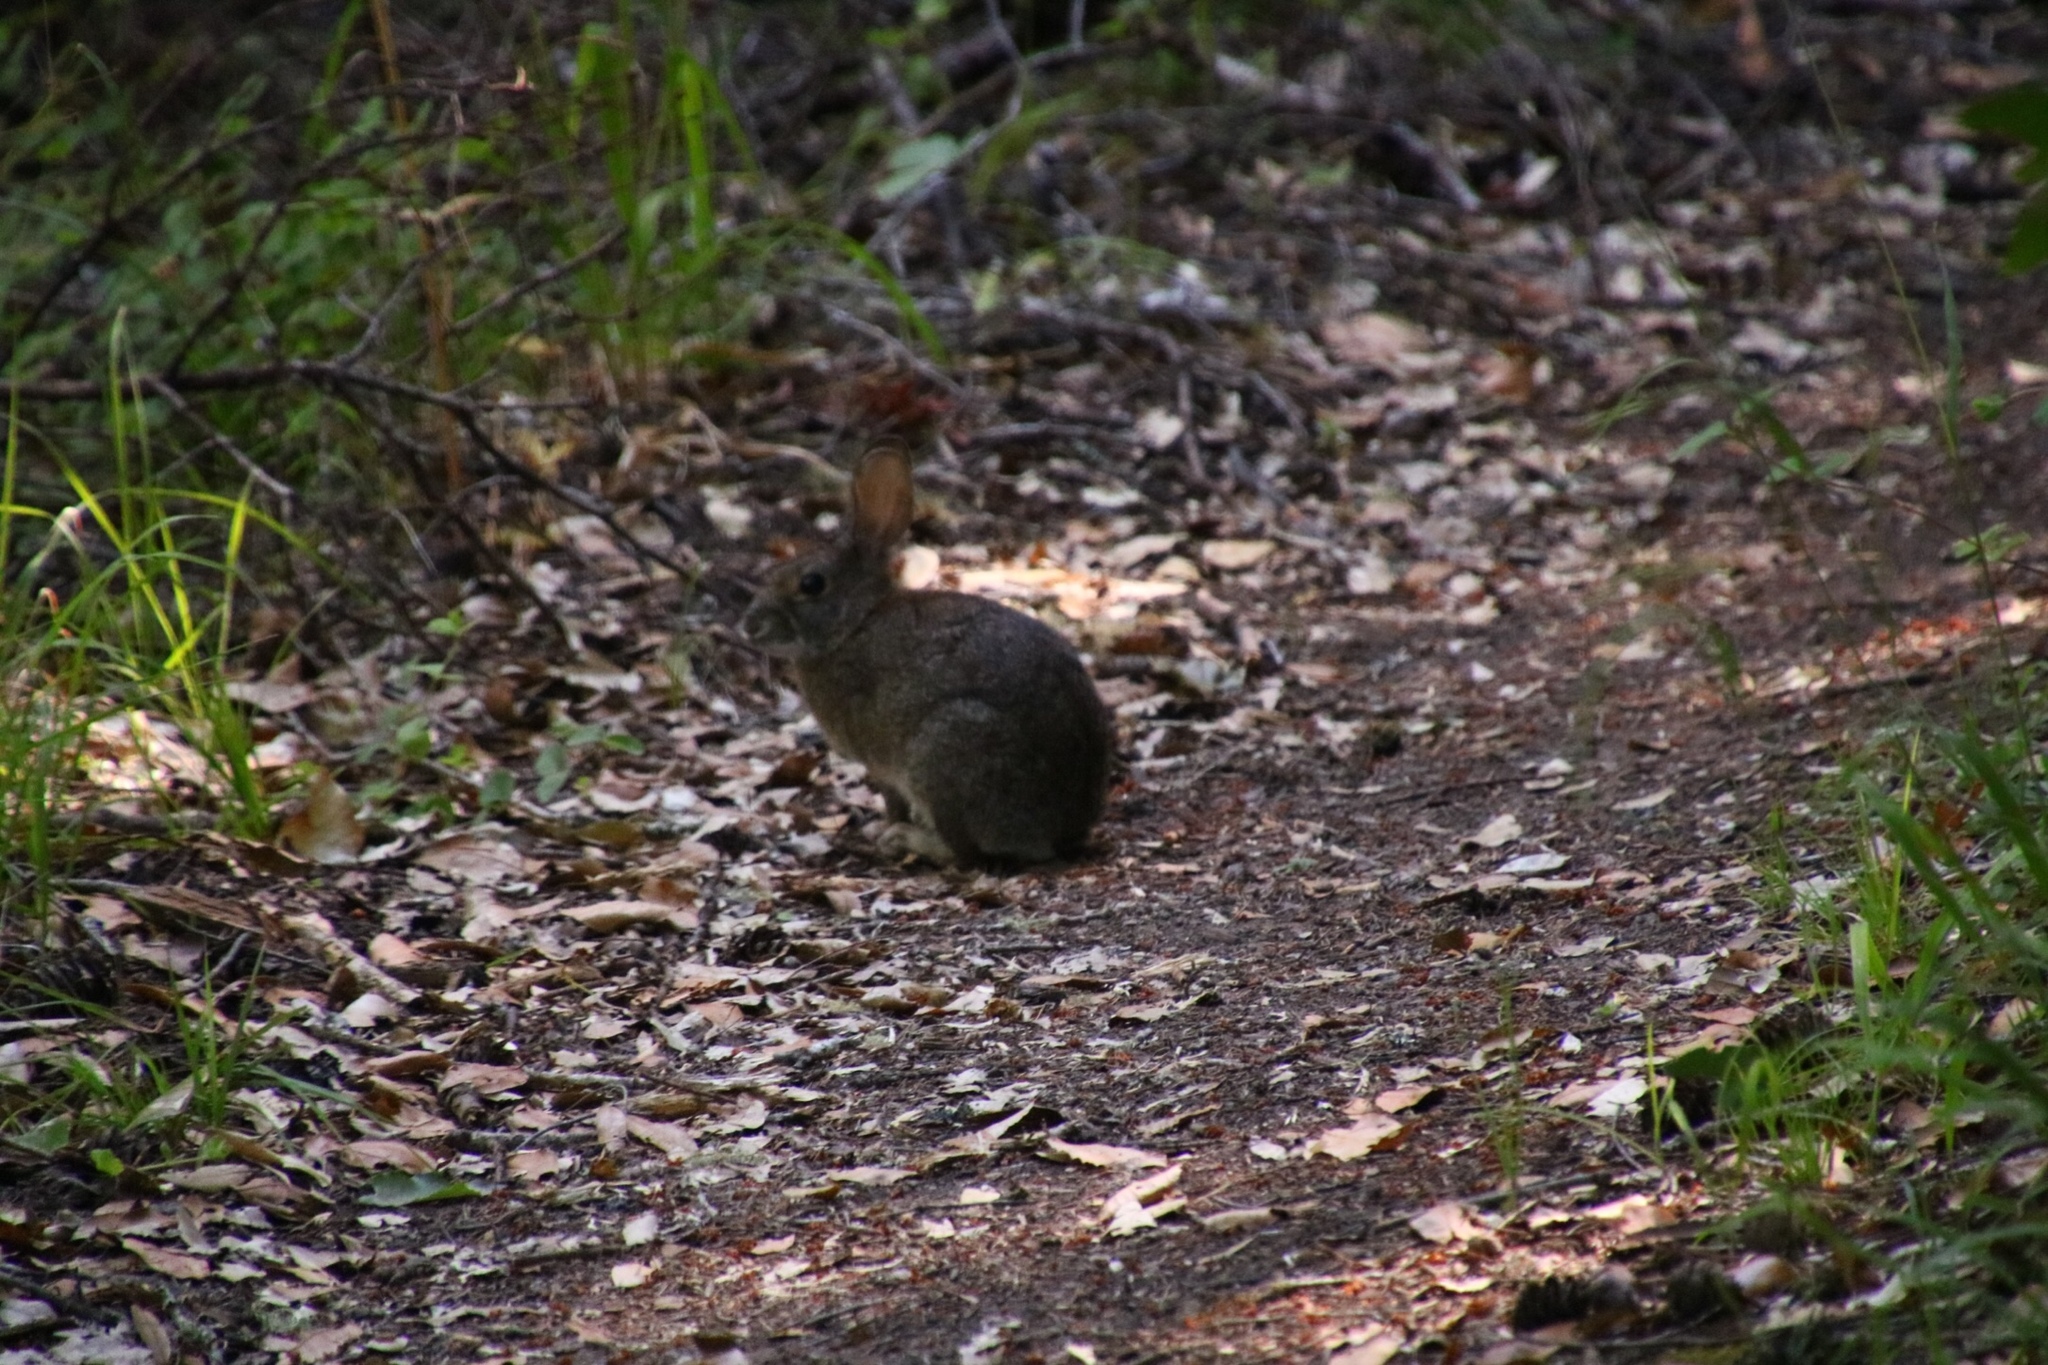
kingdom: Animalia
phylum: Chordata
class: Mammalia
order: Lagomorpha
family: Leporidae
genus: Sylvilagus
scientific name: Sylvilagus bachmani
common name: Brush rabbit
